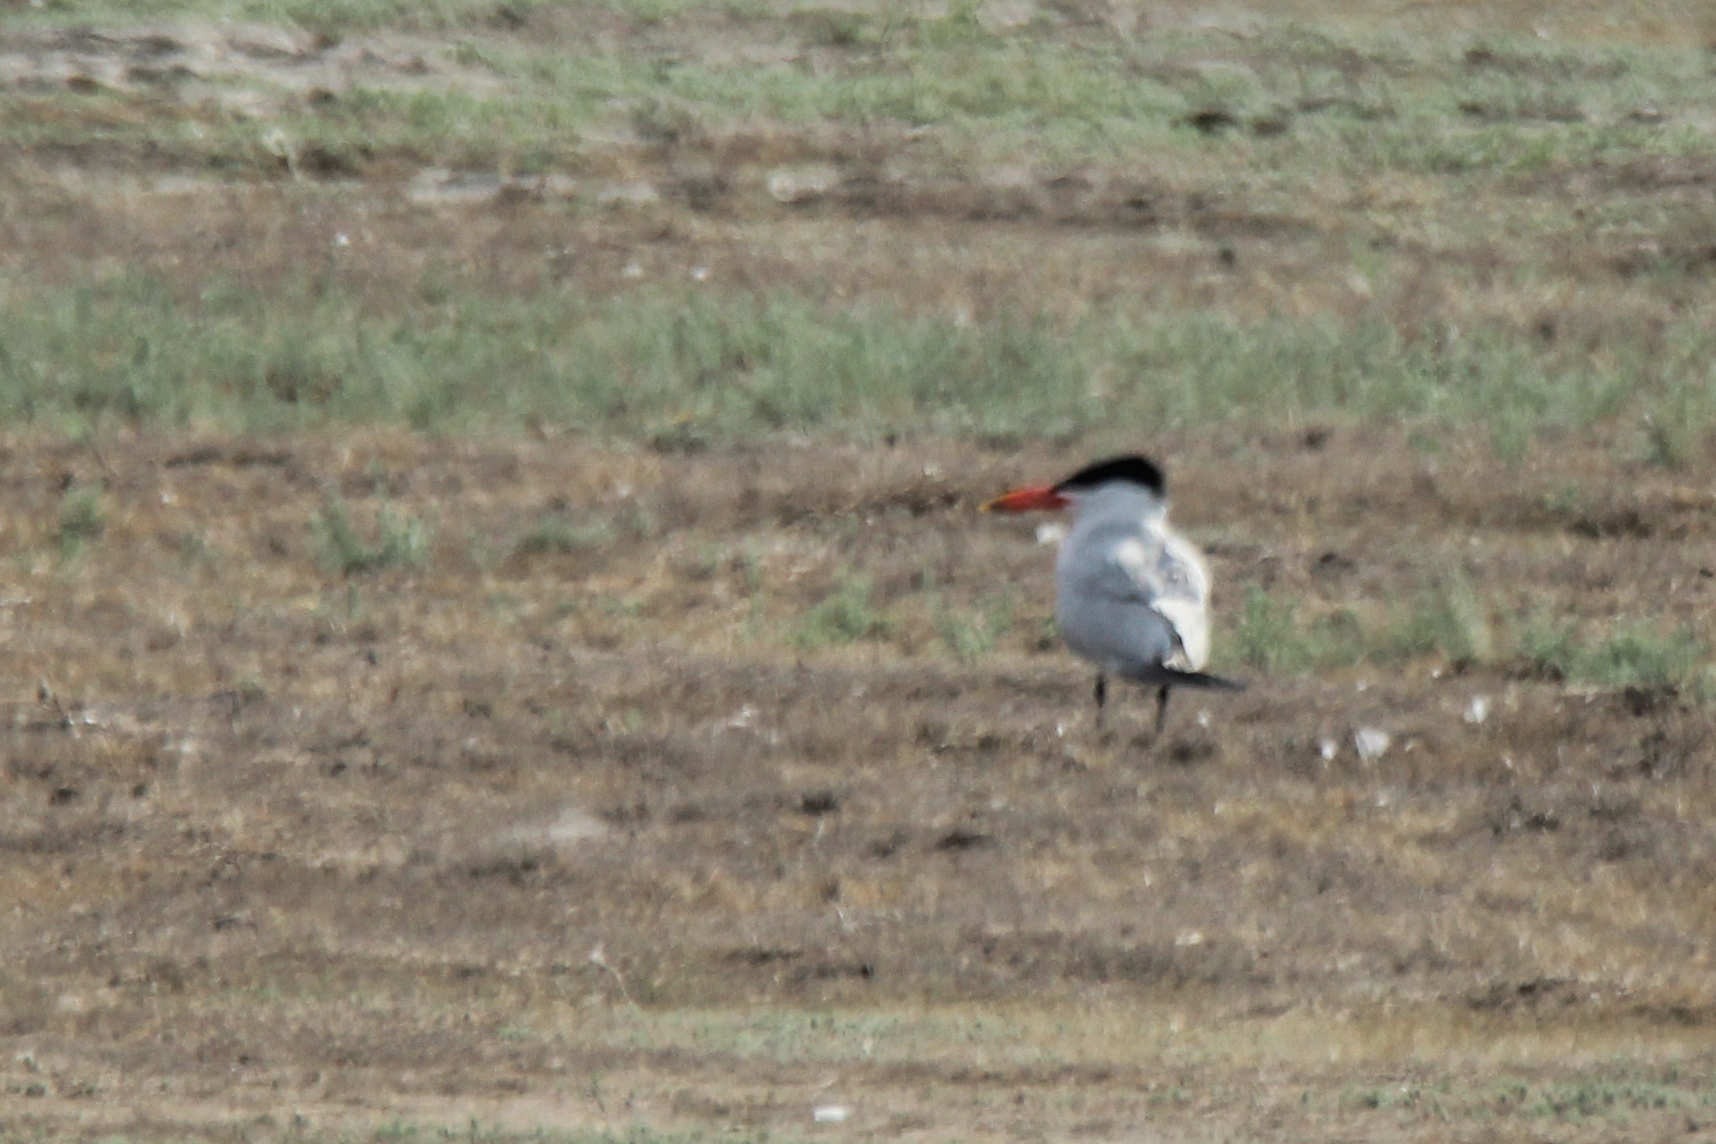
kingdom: Animalia
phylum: Chordata
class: Aves
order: Charadriiformes
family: Laridae
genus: Hydroprogne
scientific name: Hydroprogne caspia
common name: Caspian tern
